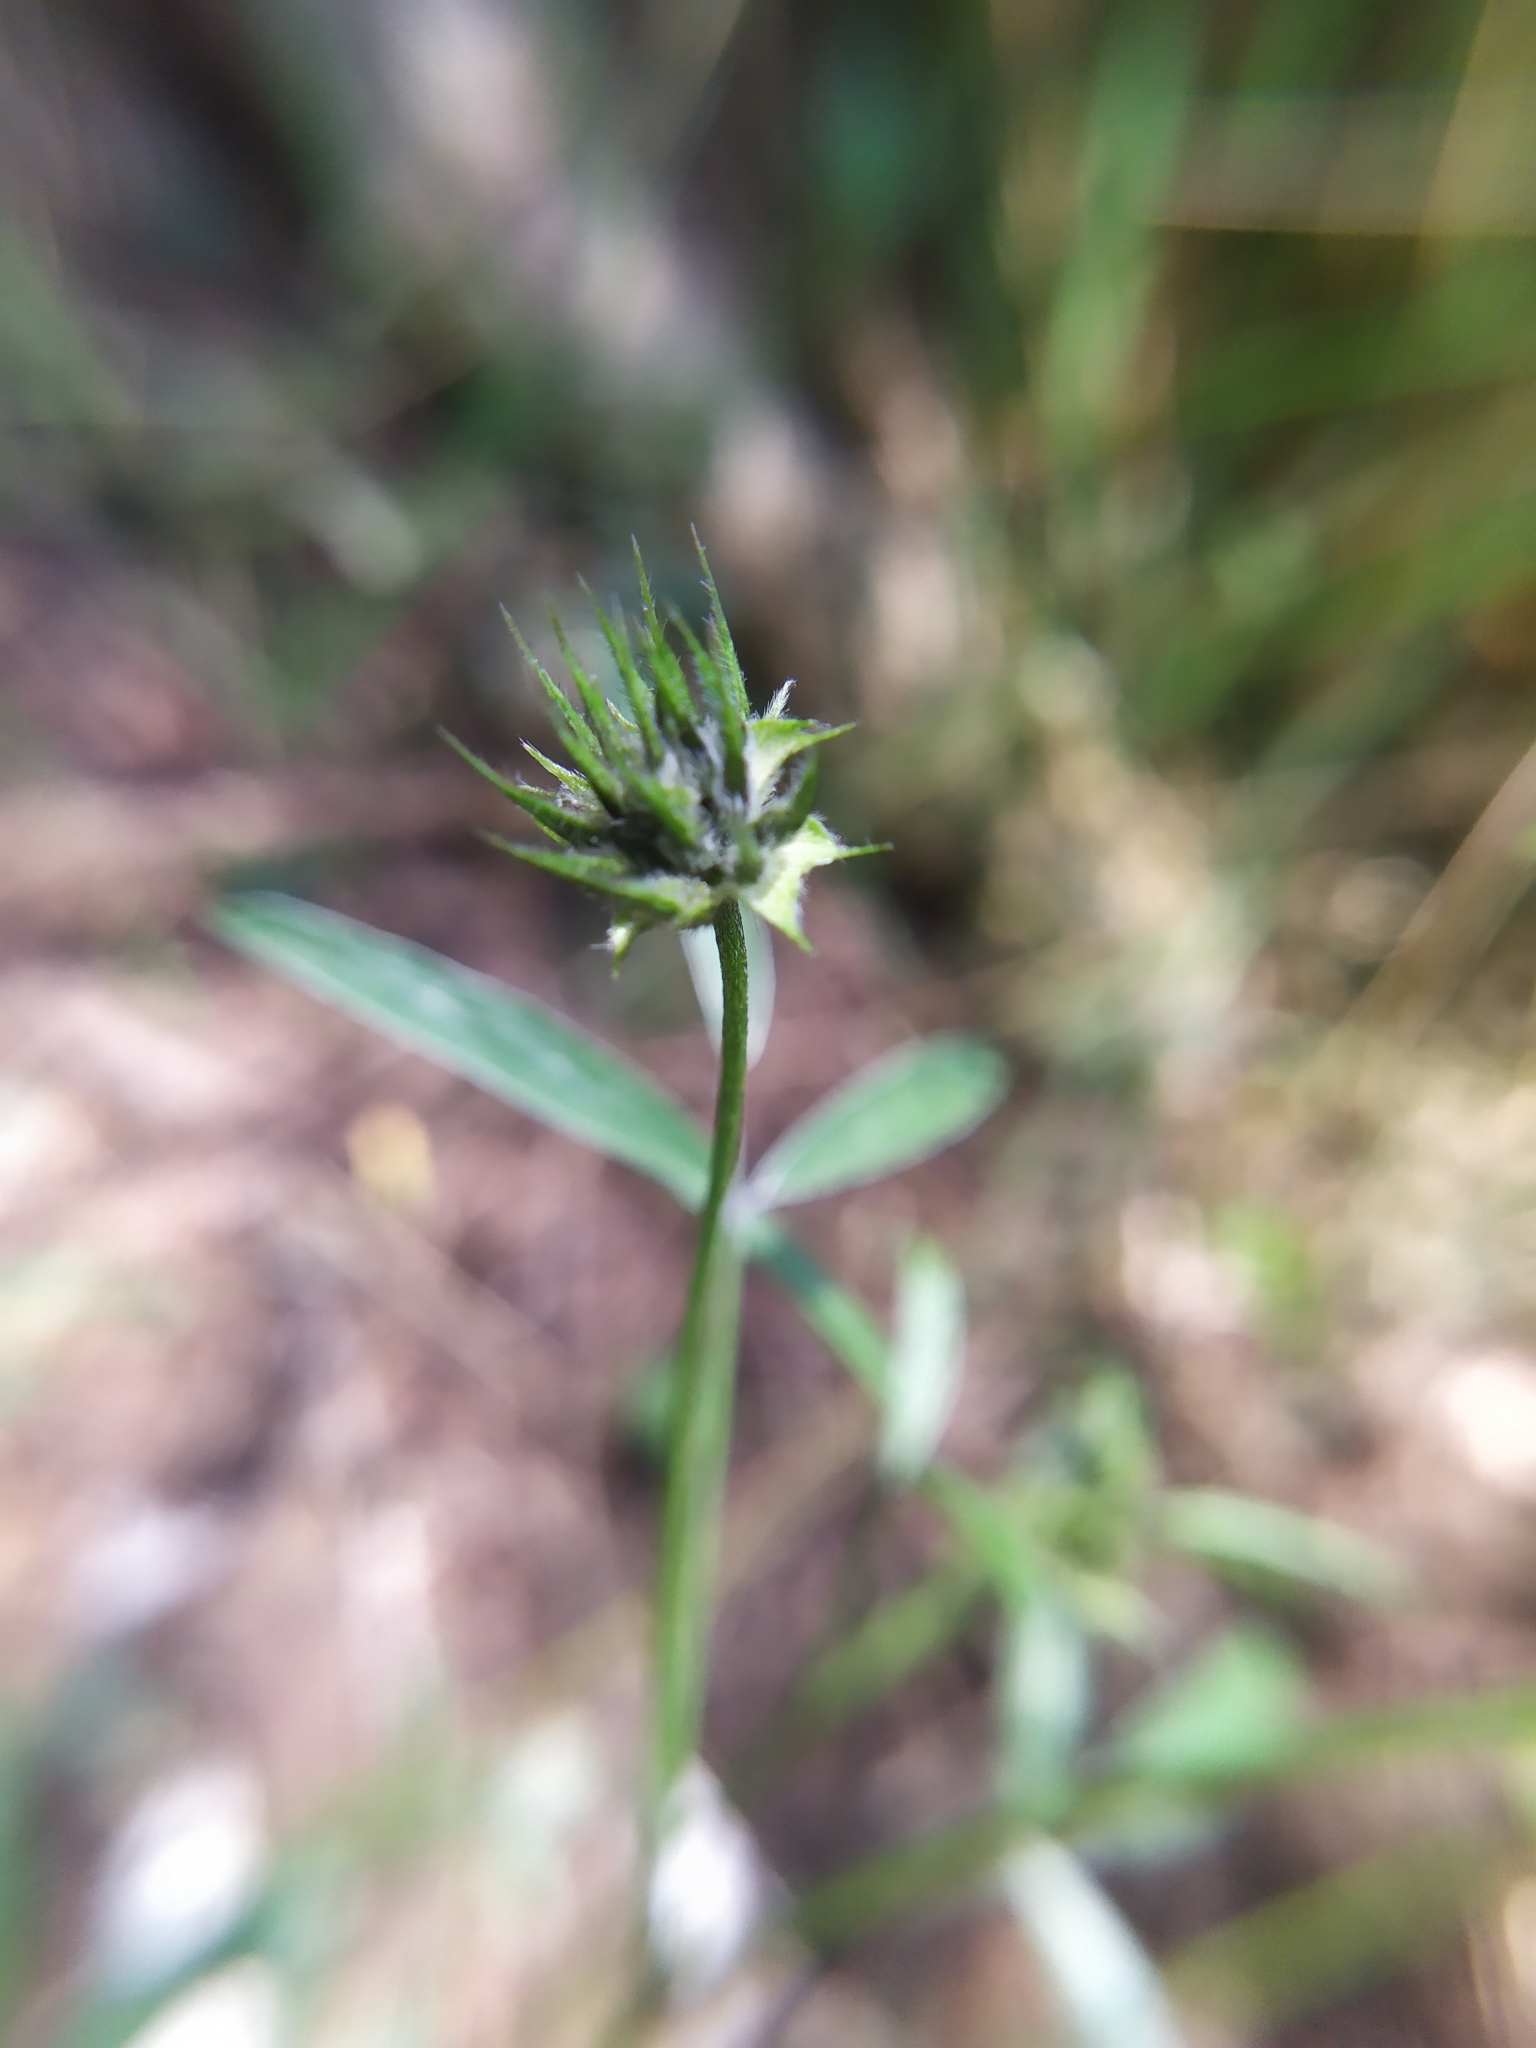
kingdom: Plantae
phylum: Tracheophyta
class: Magnoliopsida
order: Fabales
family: Fabaceae
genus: Bituminaria
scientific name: Bituminaria bituminosa
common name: Arabian pea
